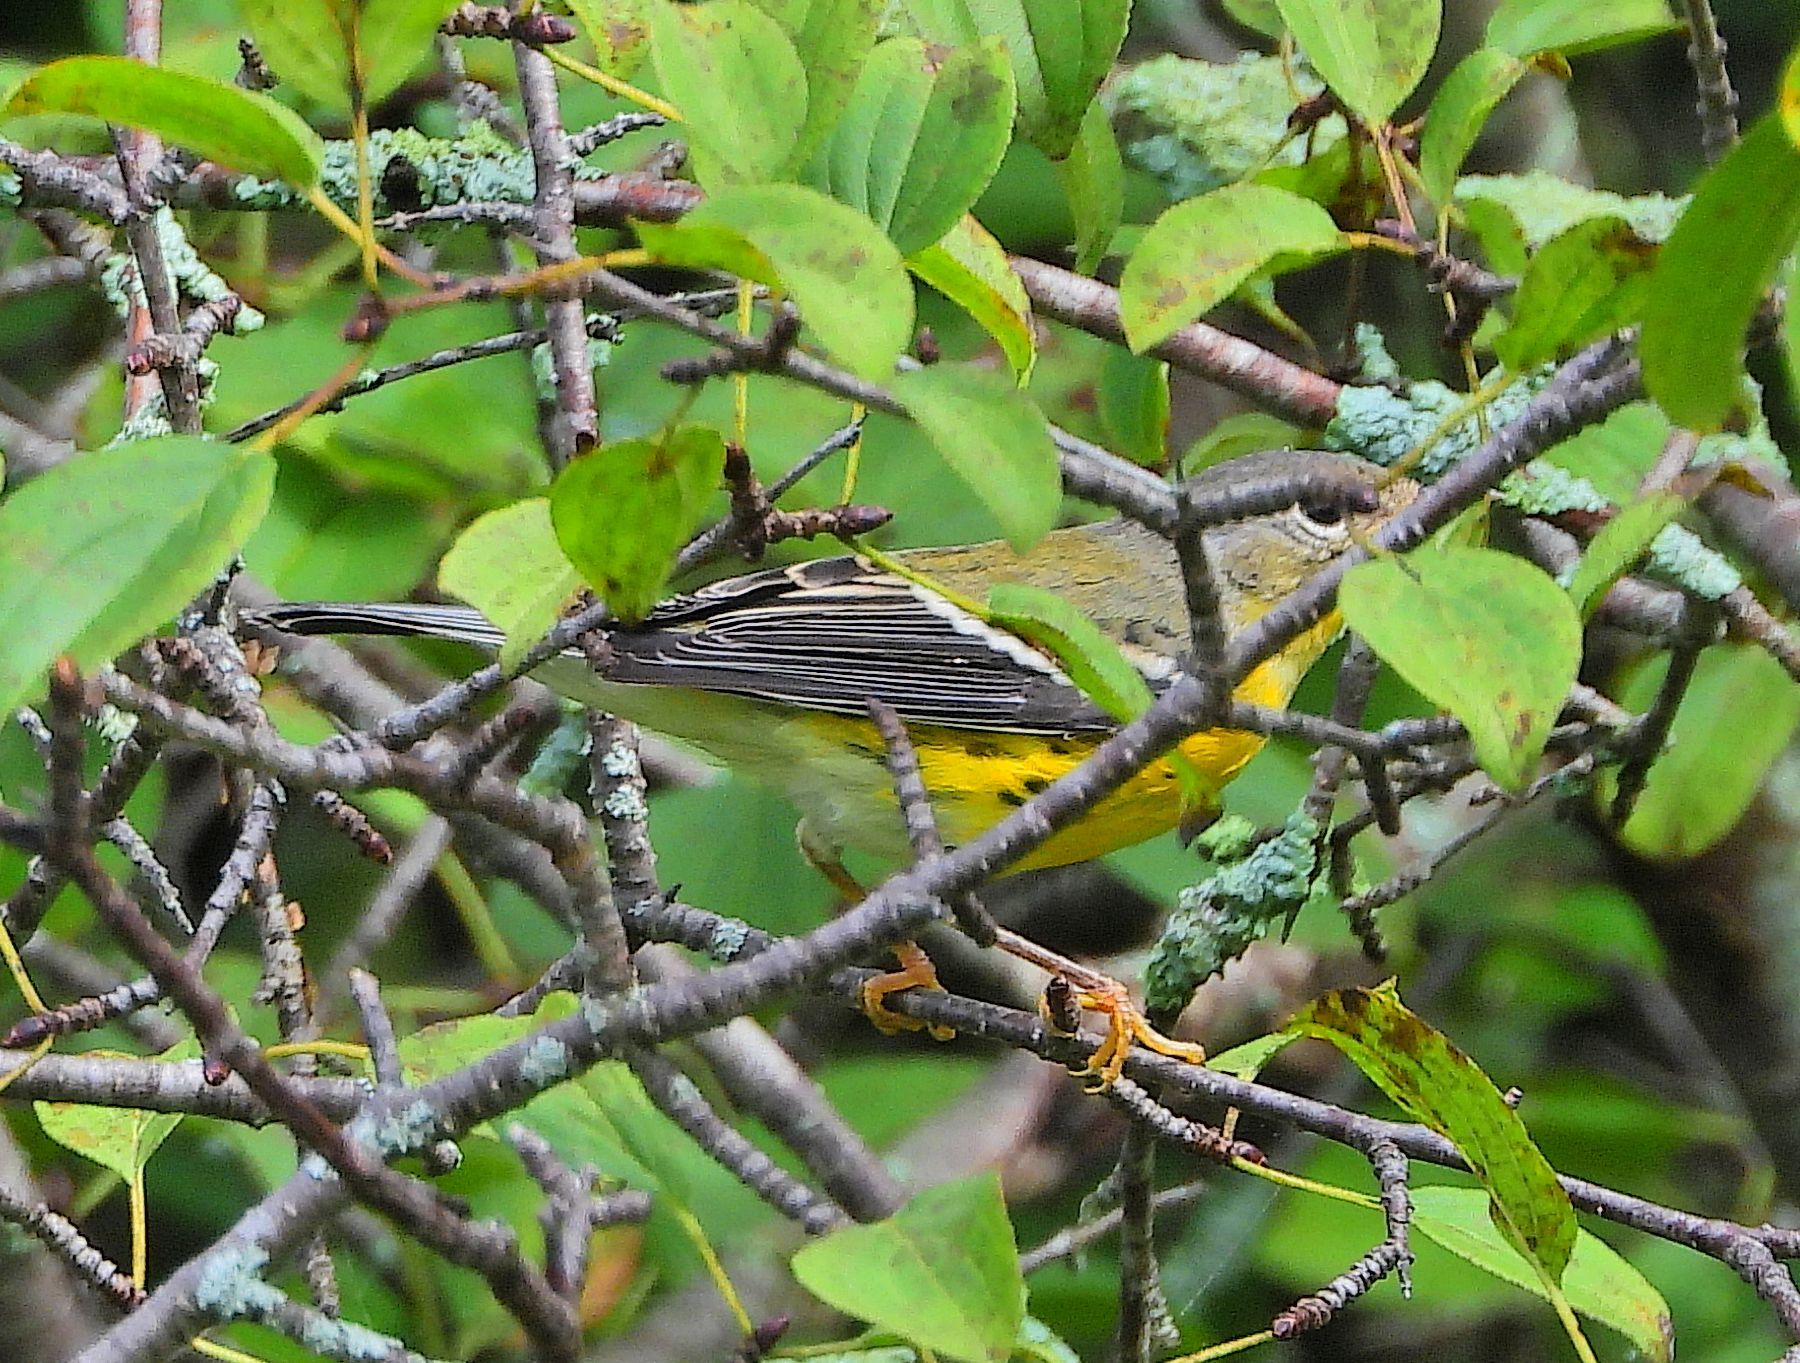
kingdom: Animalia
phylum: Chordata
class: Aves
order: Passeriformes
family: Parulidae
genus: Setophaga
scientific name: Setophaga magnolia
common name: Magnolia warbler
